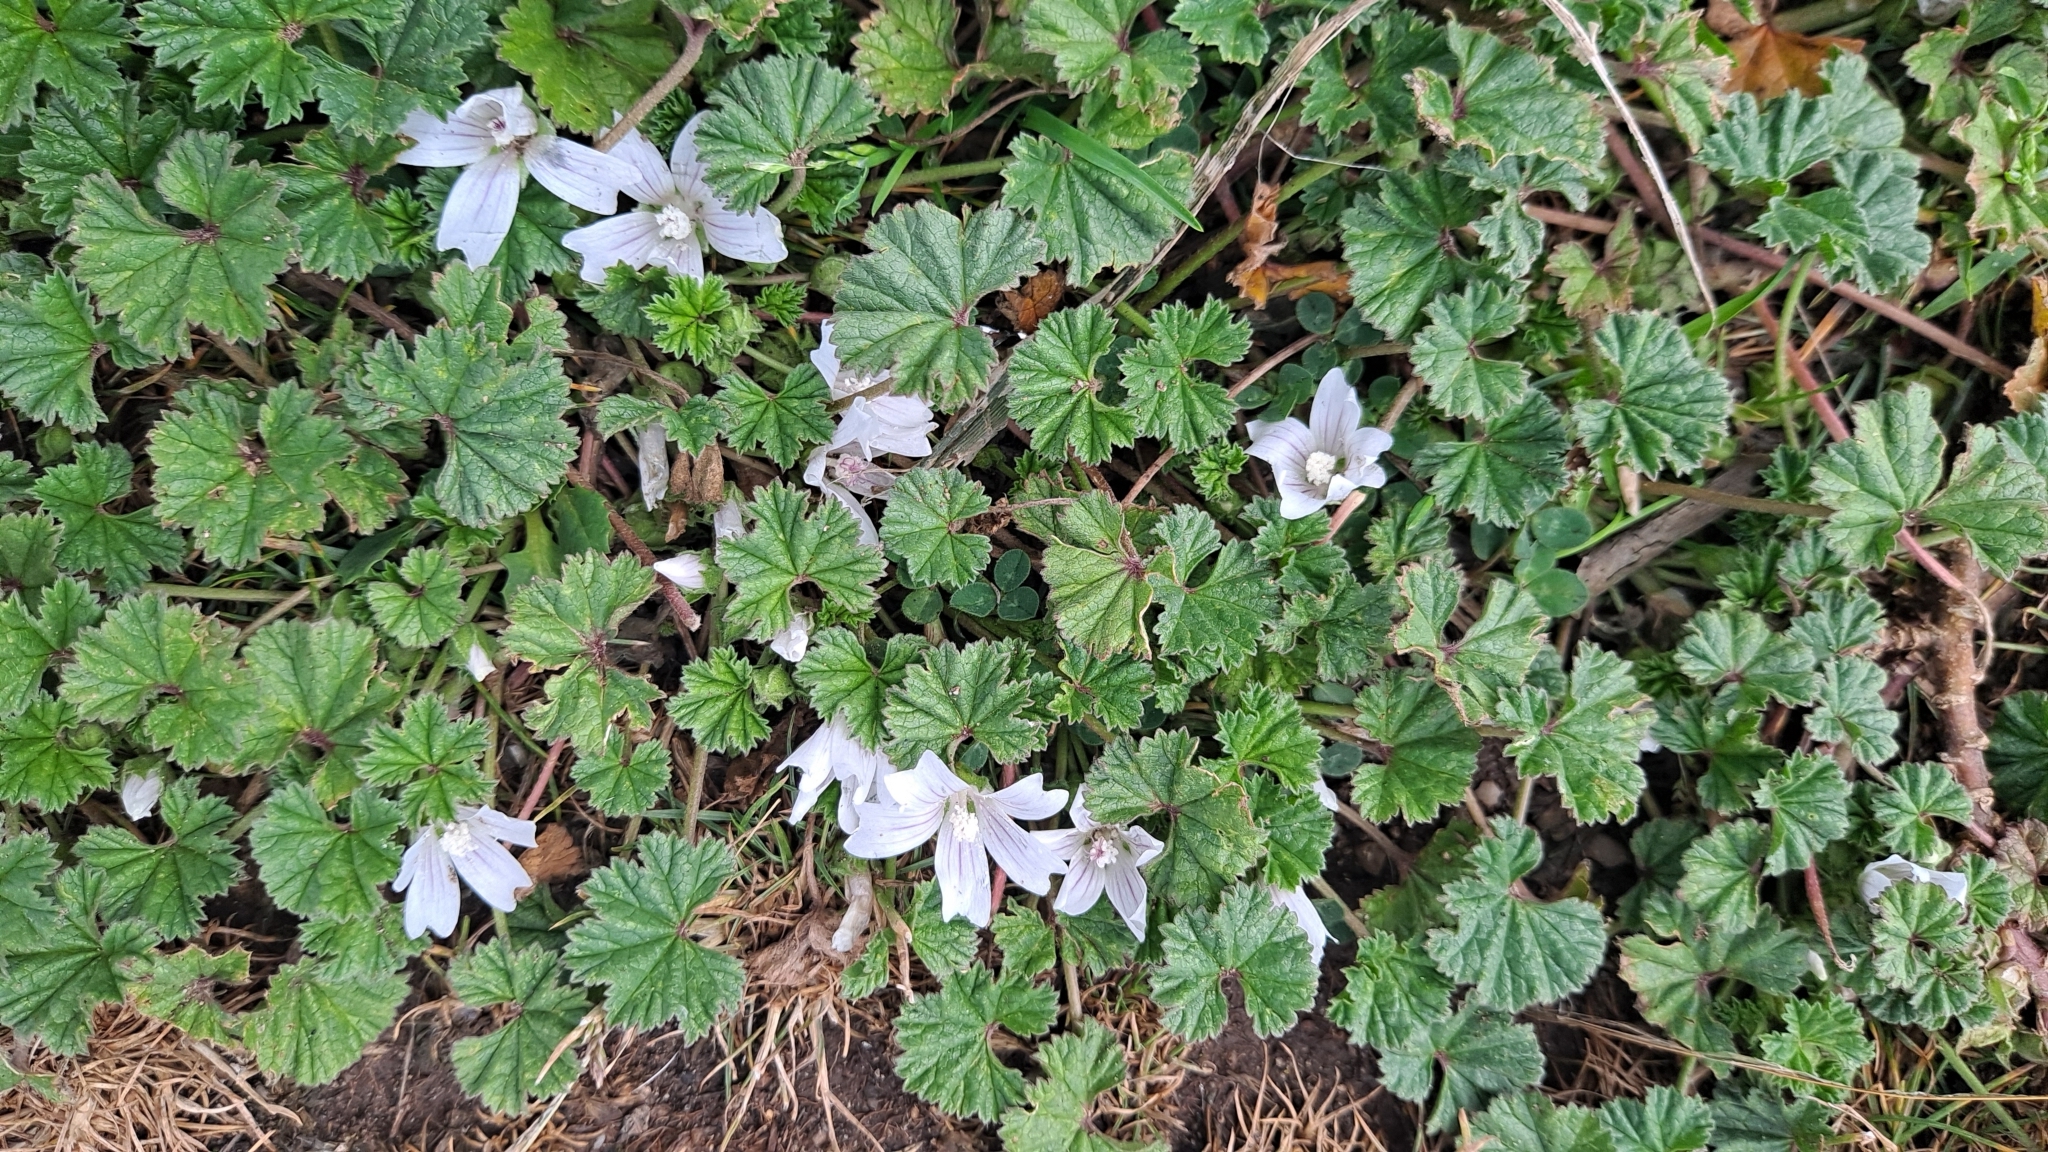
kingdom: Plantae
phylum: Tracheophyta
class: Magnoliopsida
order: Malvales
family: Malvaceae
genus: Malva
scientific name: Malva neglecta
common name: Common mallow
